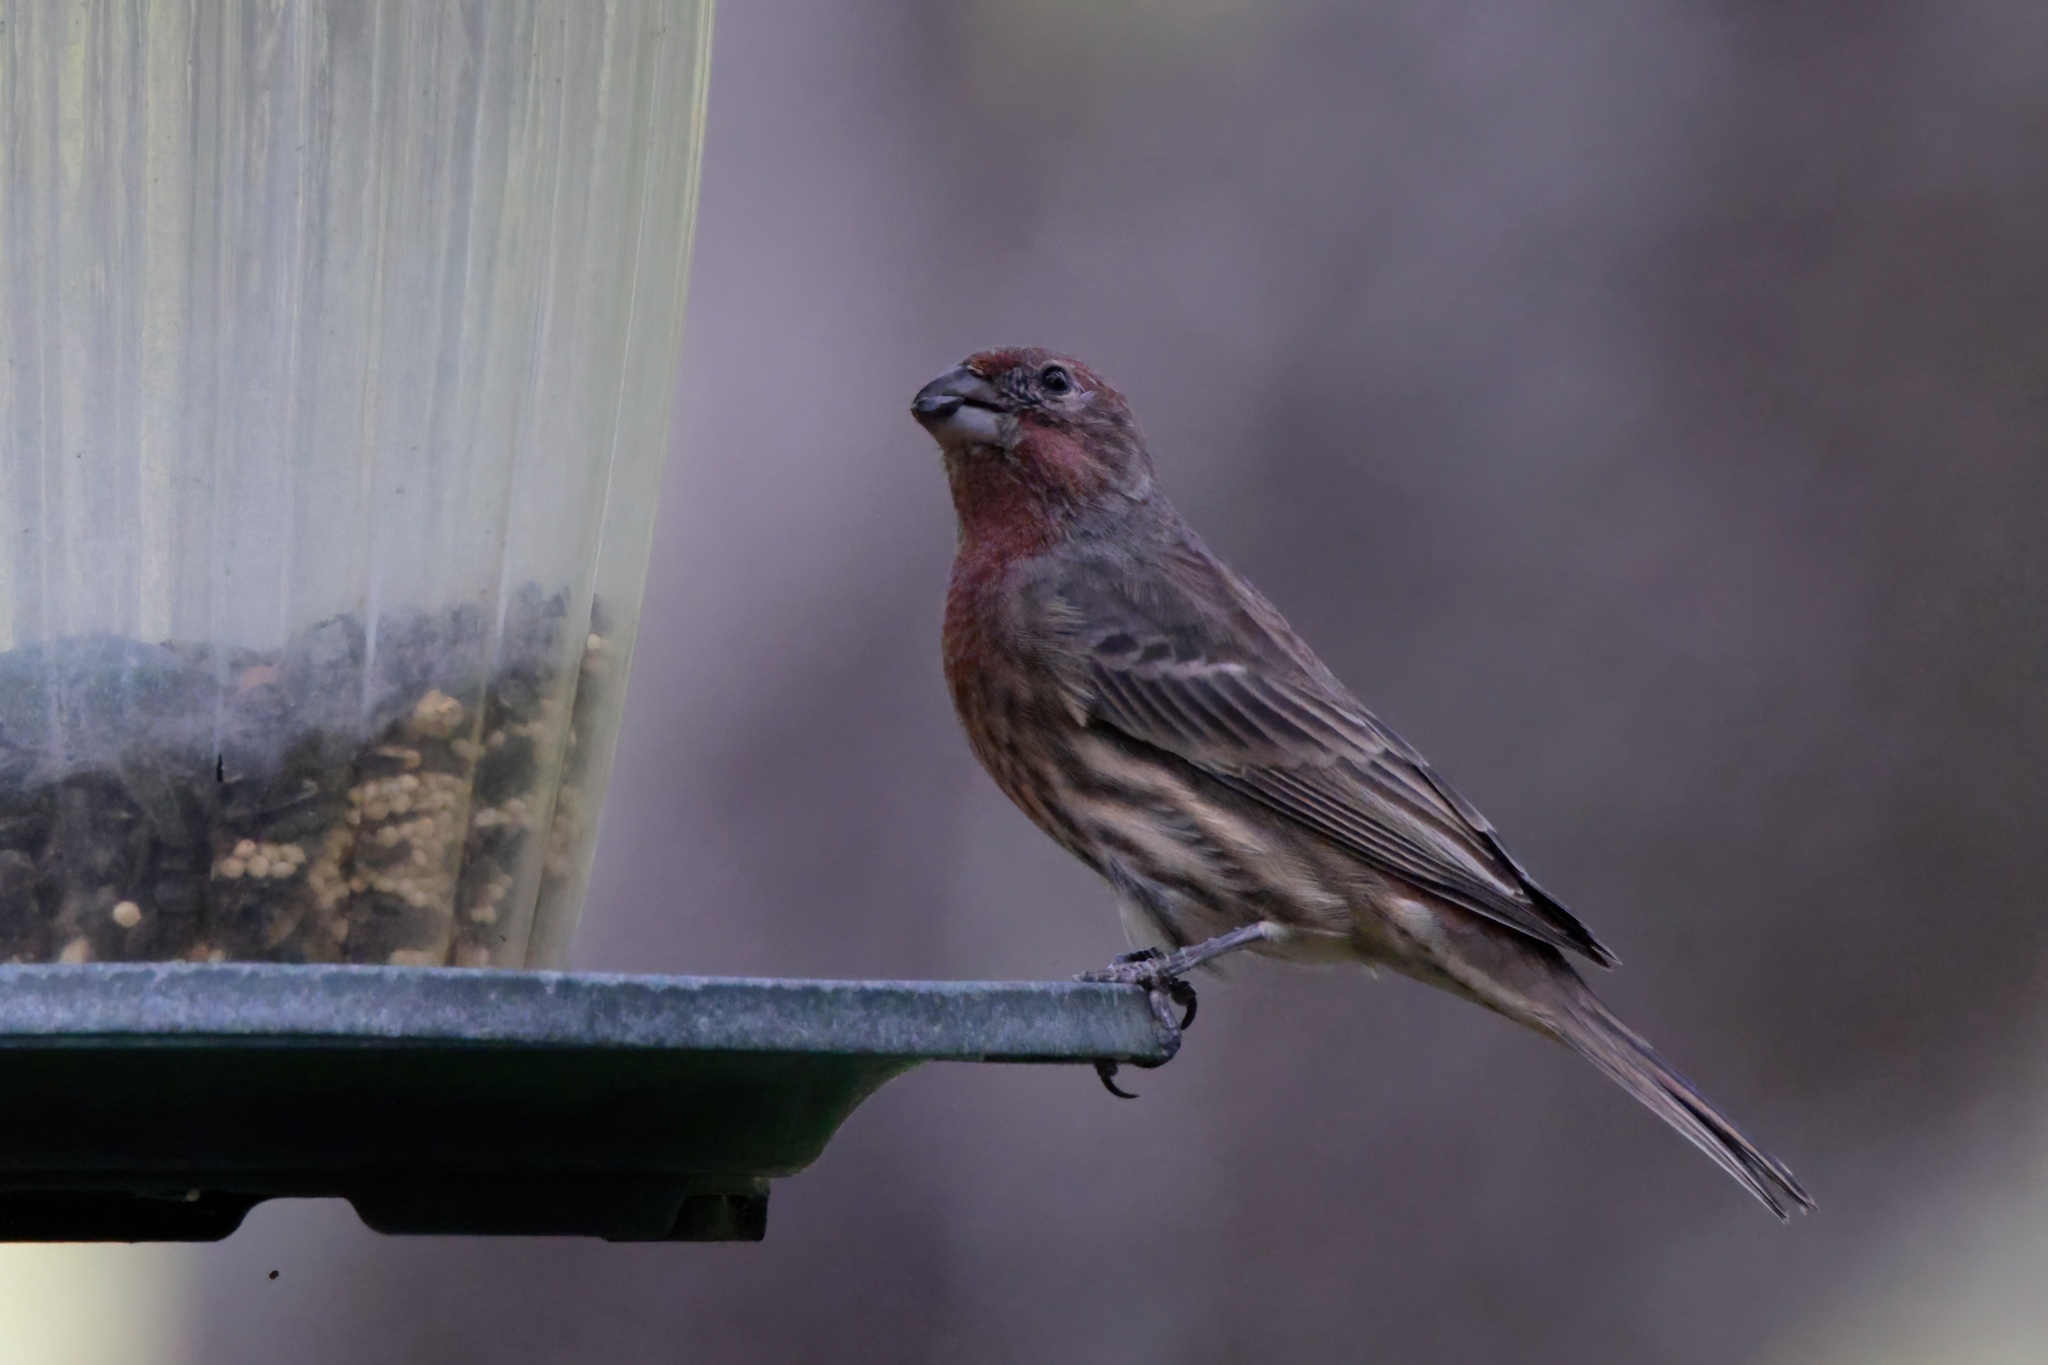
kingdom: Animalia
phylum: Chordata
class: Aves
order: Passeriformes
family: Fringillidae
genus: Haemorhous
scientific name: Haemorhous mexicanus
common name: House finch
